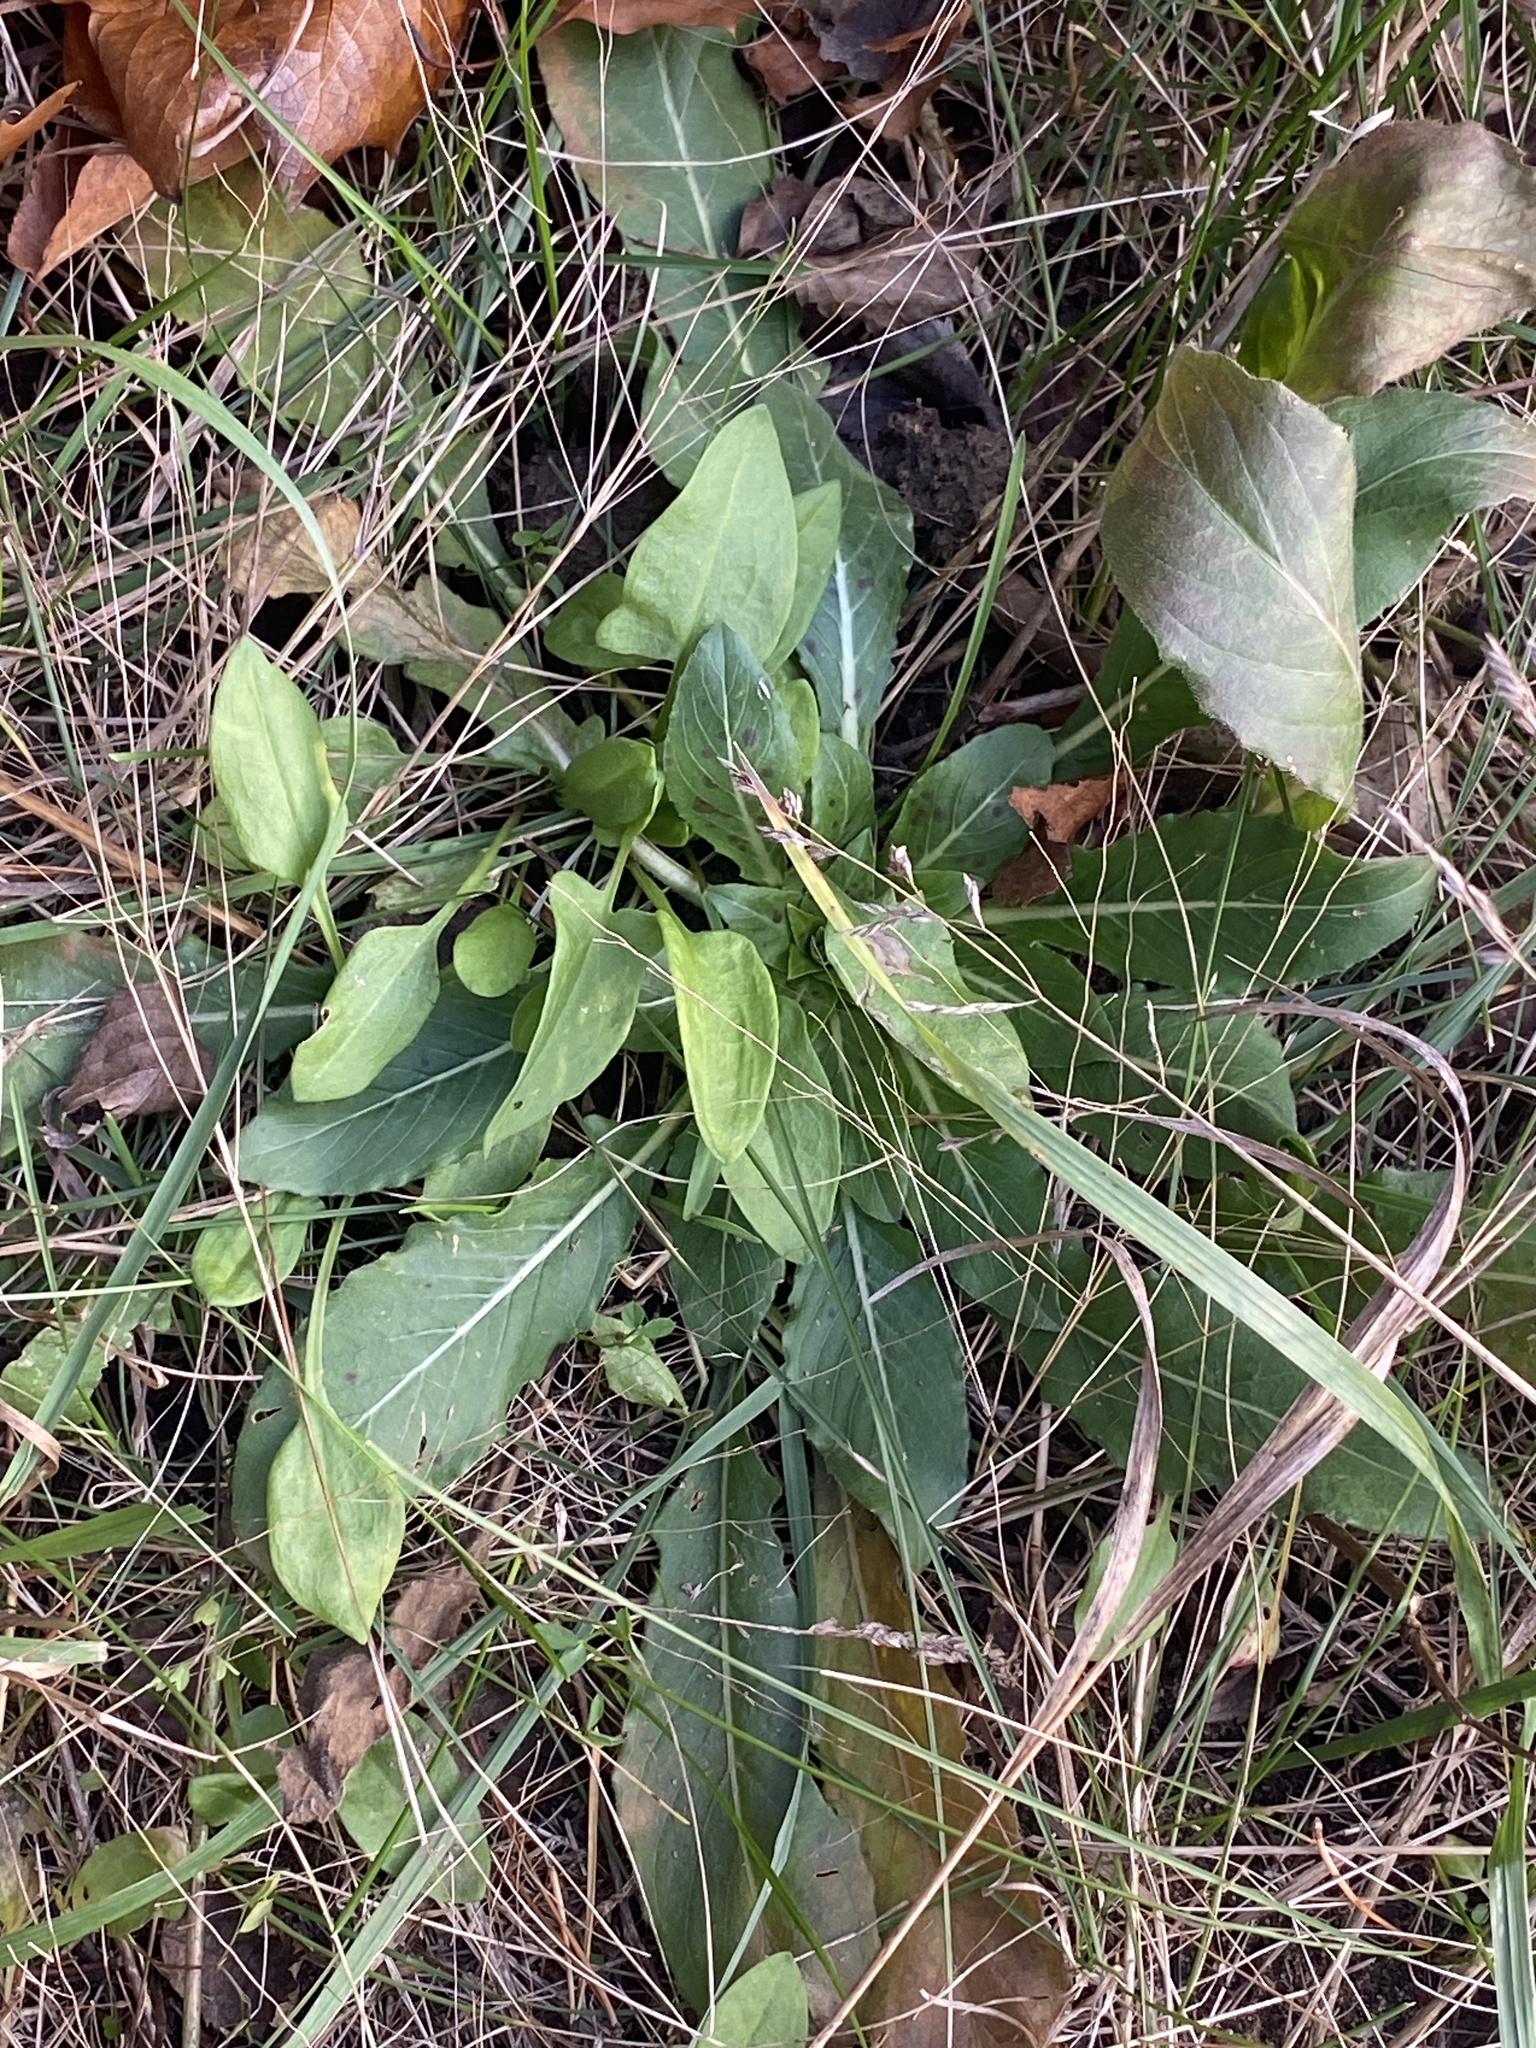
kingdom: Plantae
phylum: Tracheophyta
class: Magnoliopsida
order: Caryophyllales
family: Polygonaceae
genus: Rumex
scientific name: Rumex acetosella
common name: Common sheep sorrel
